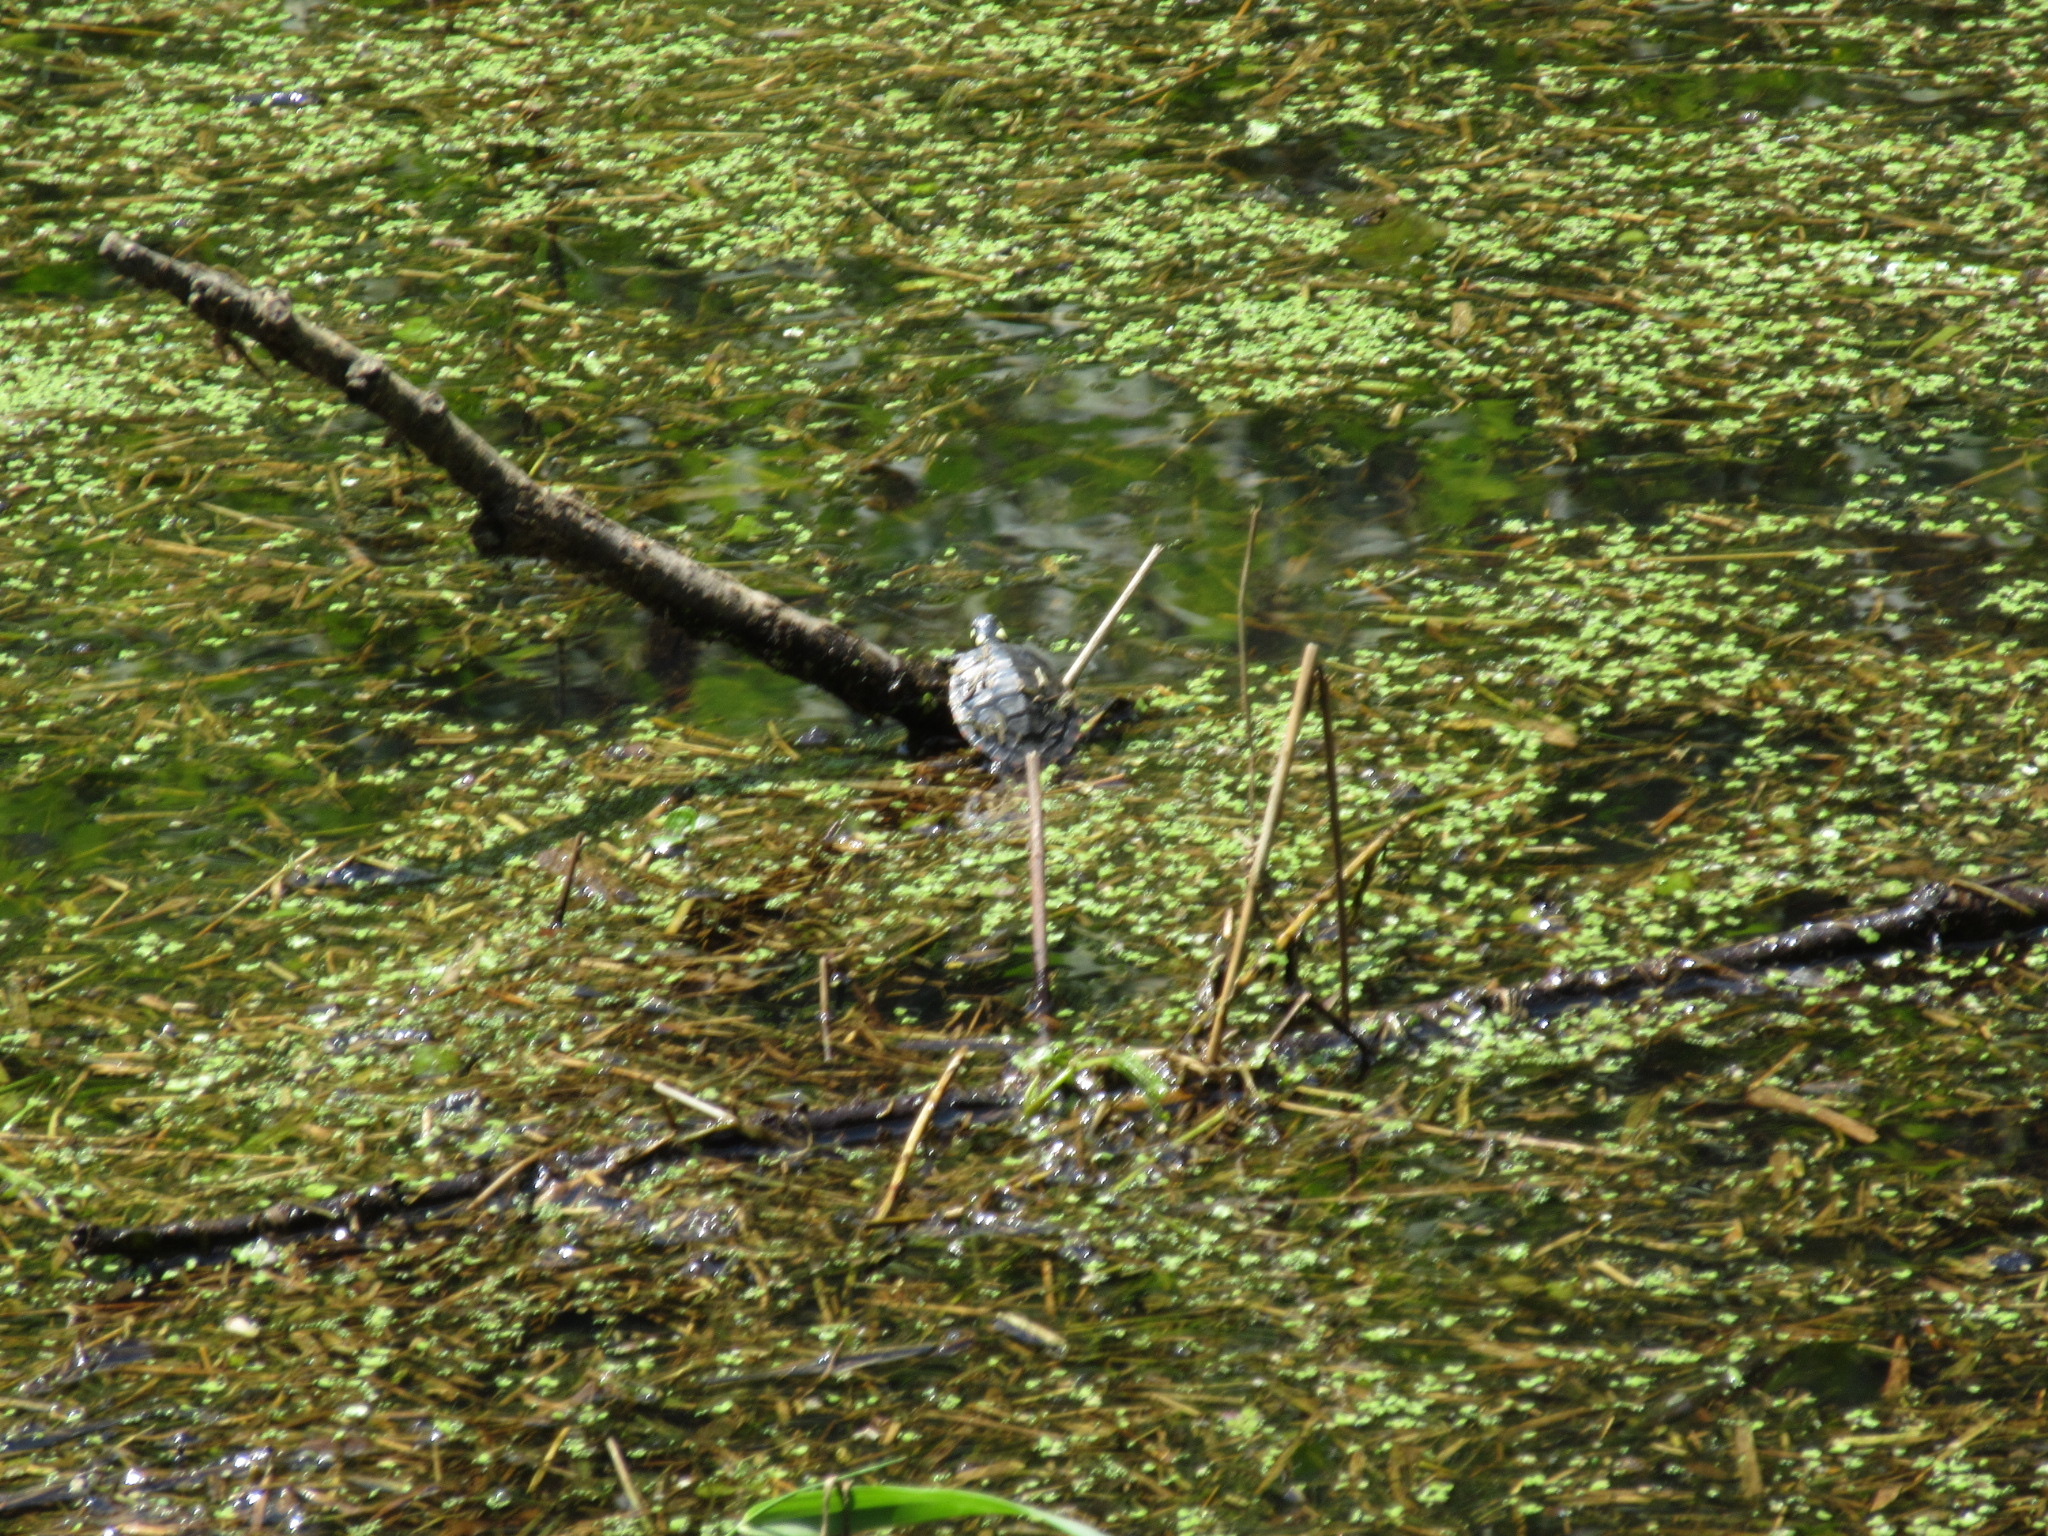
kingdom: Animalia
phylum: Chordata
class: Testudines
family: Emydidae
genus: Chrysemys
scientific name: Chrysemys picta
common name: Painted turtle
